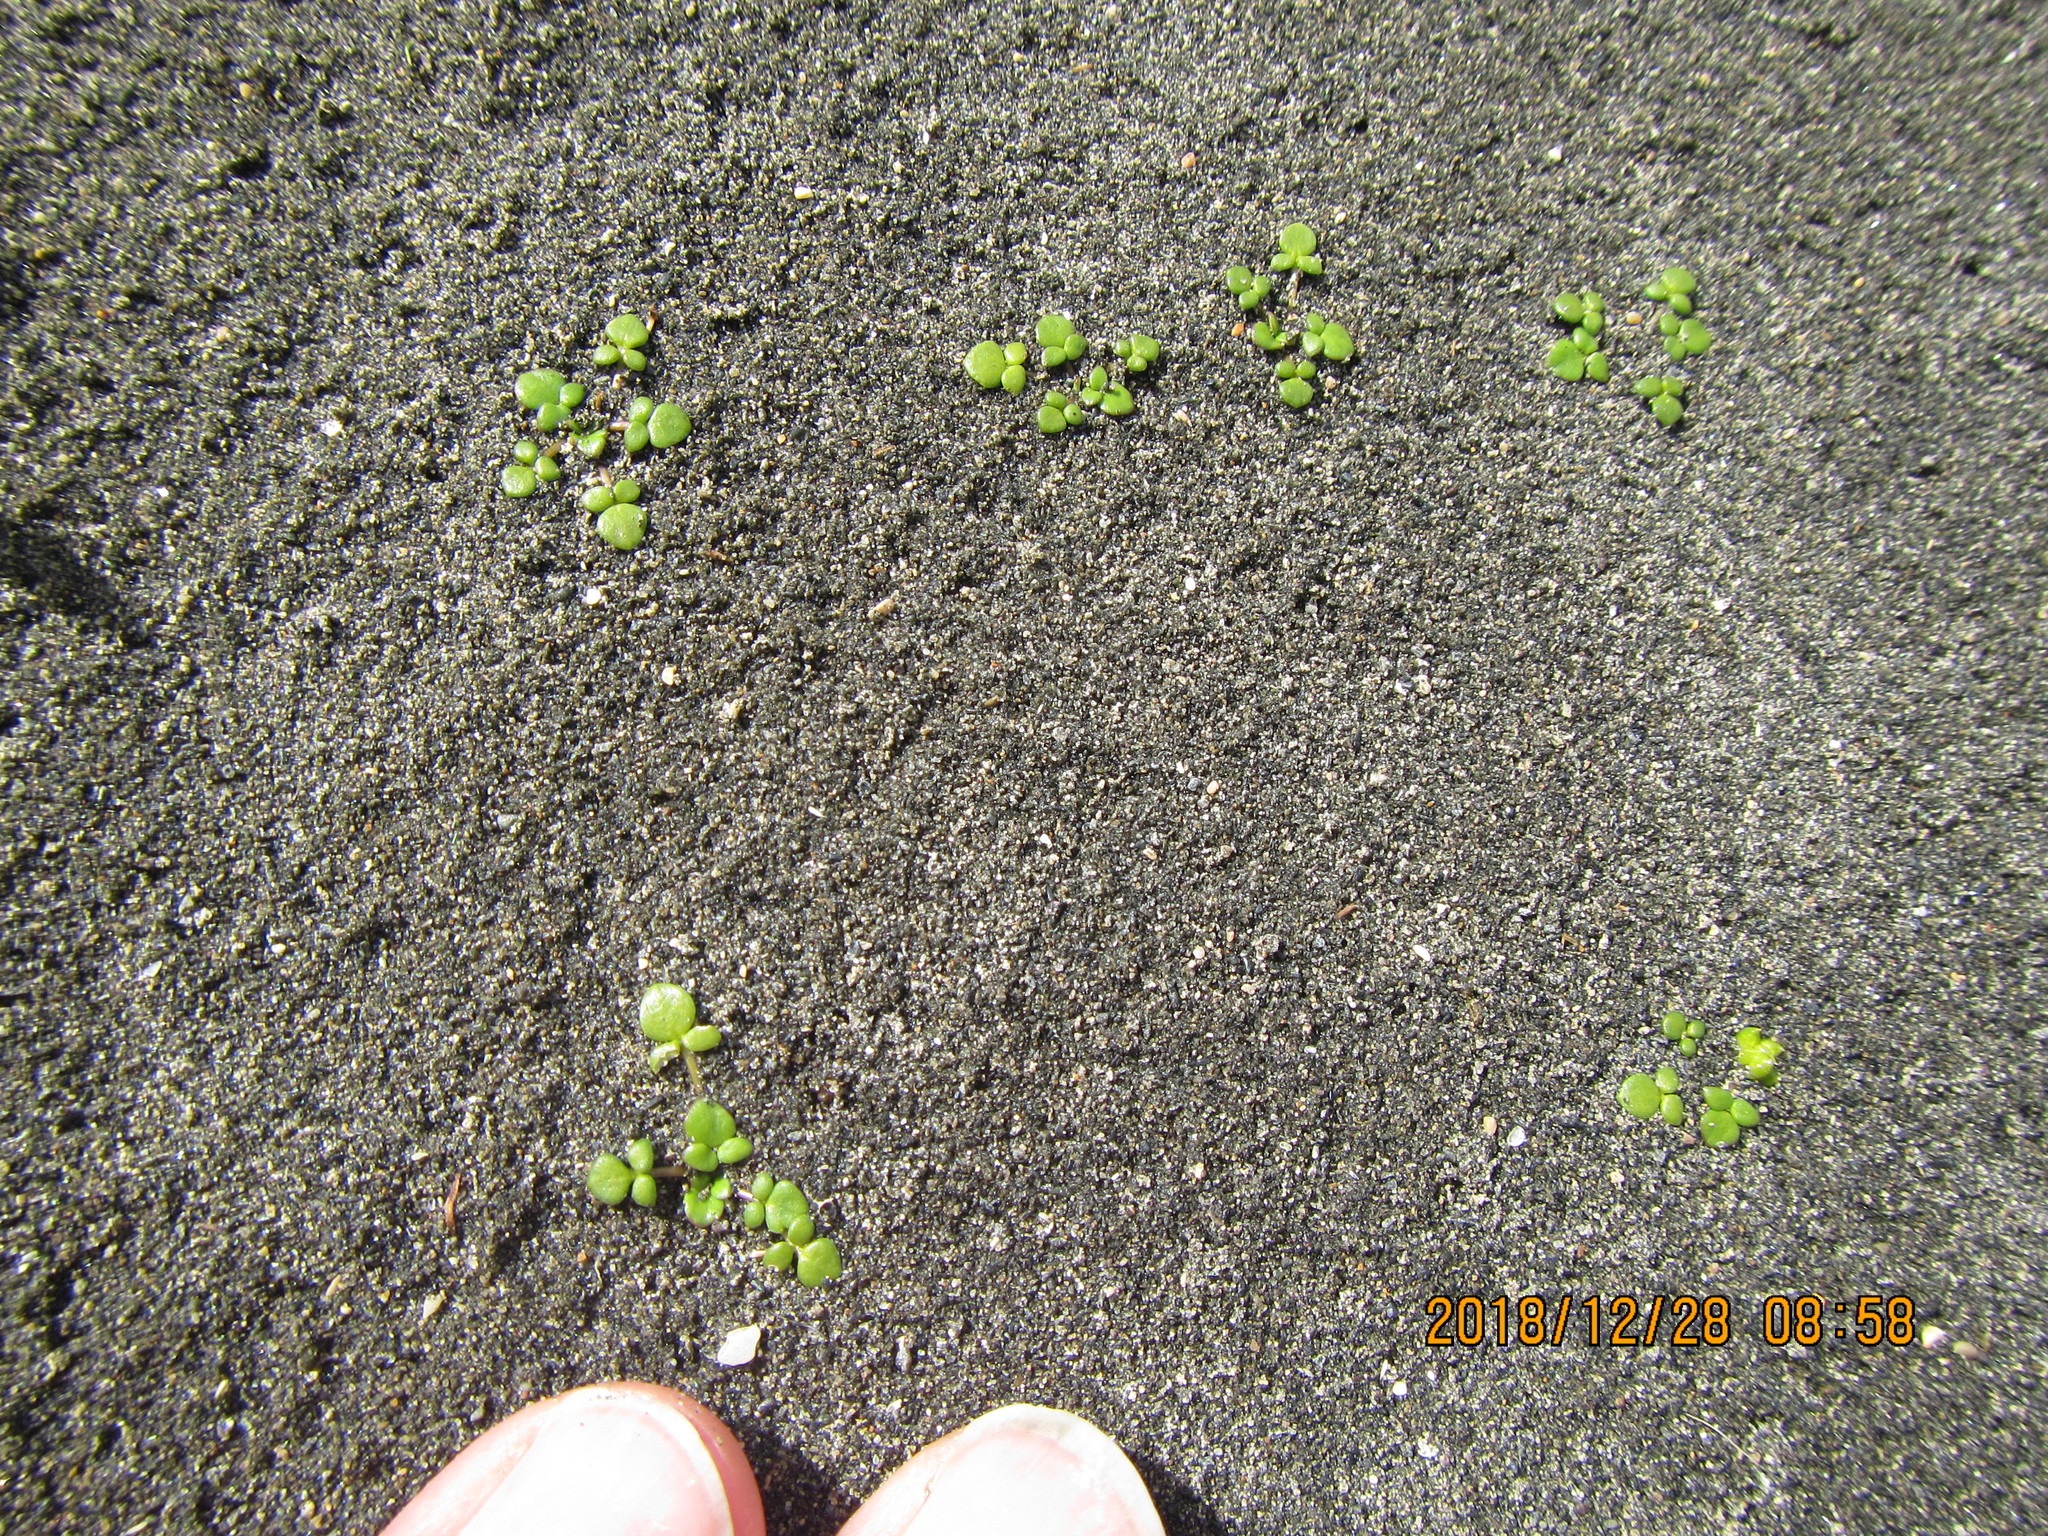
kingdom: Plantae
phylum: Tracheophyta
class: Magnoliopsida
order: Ranunculales
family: Ranunculaceae
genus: Ranunculus
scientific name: Ranunculus acaulis
